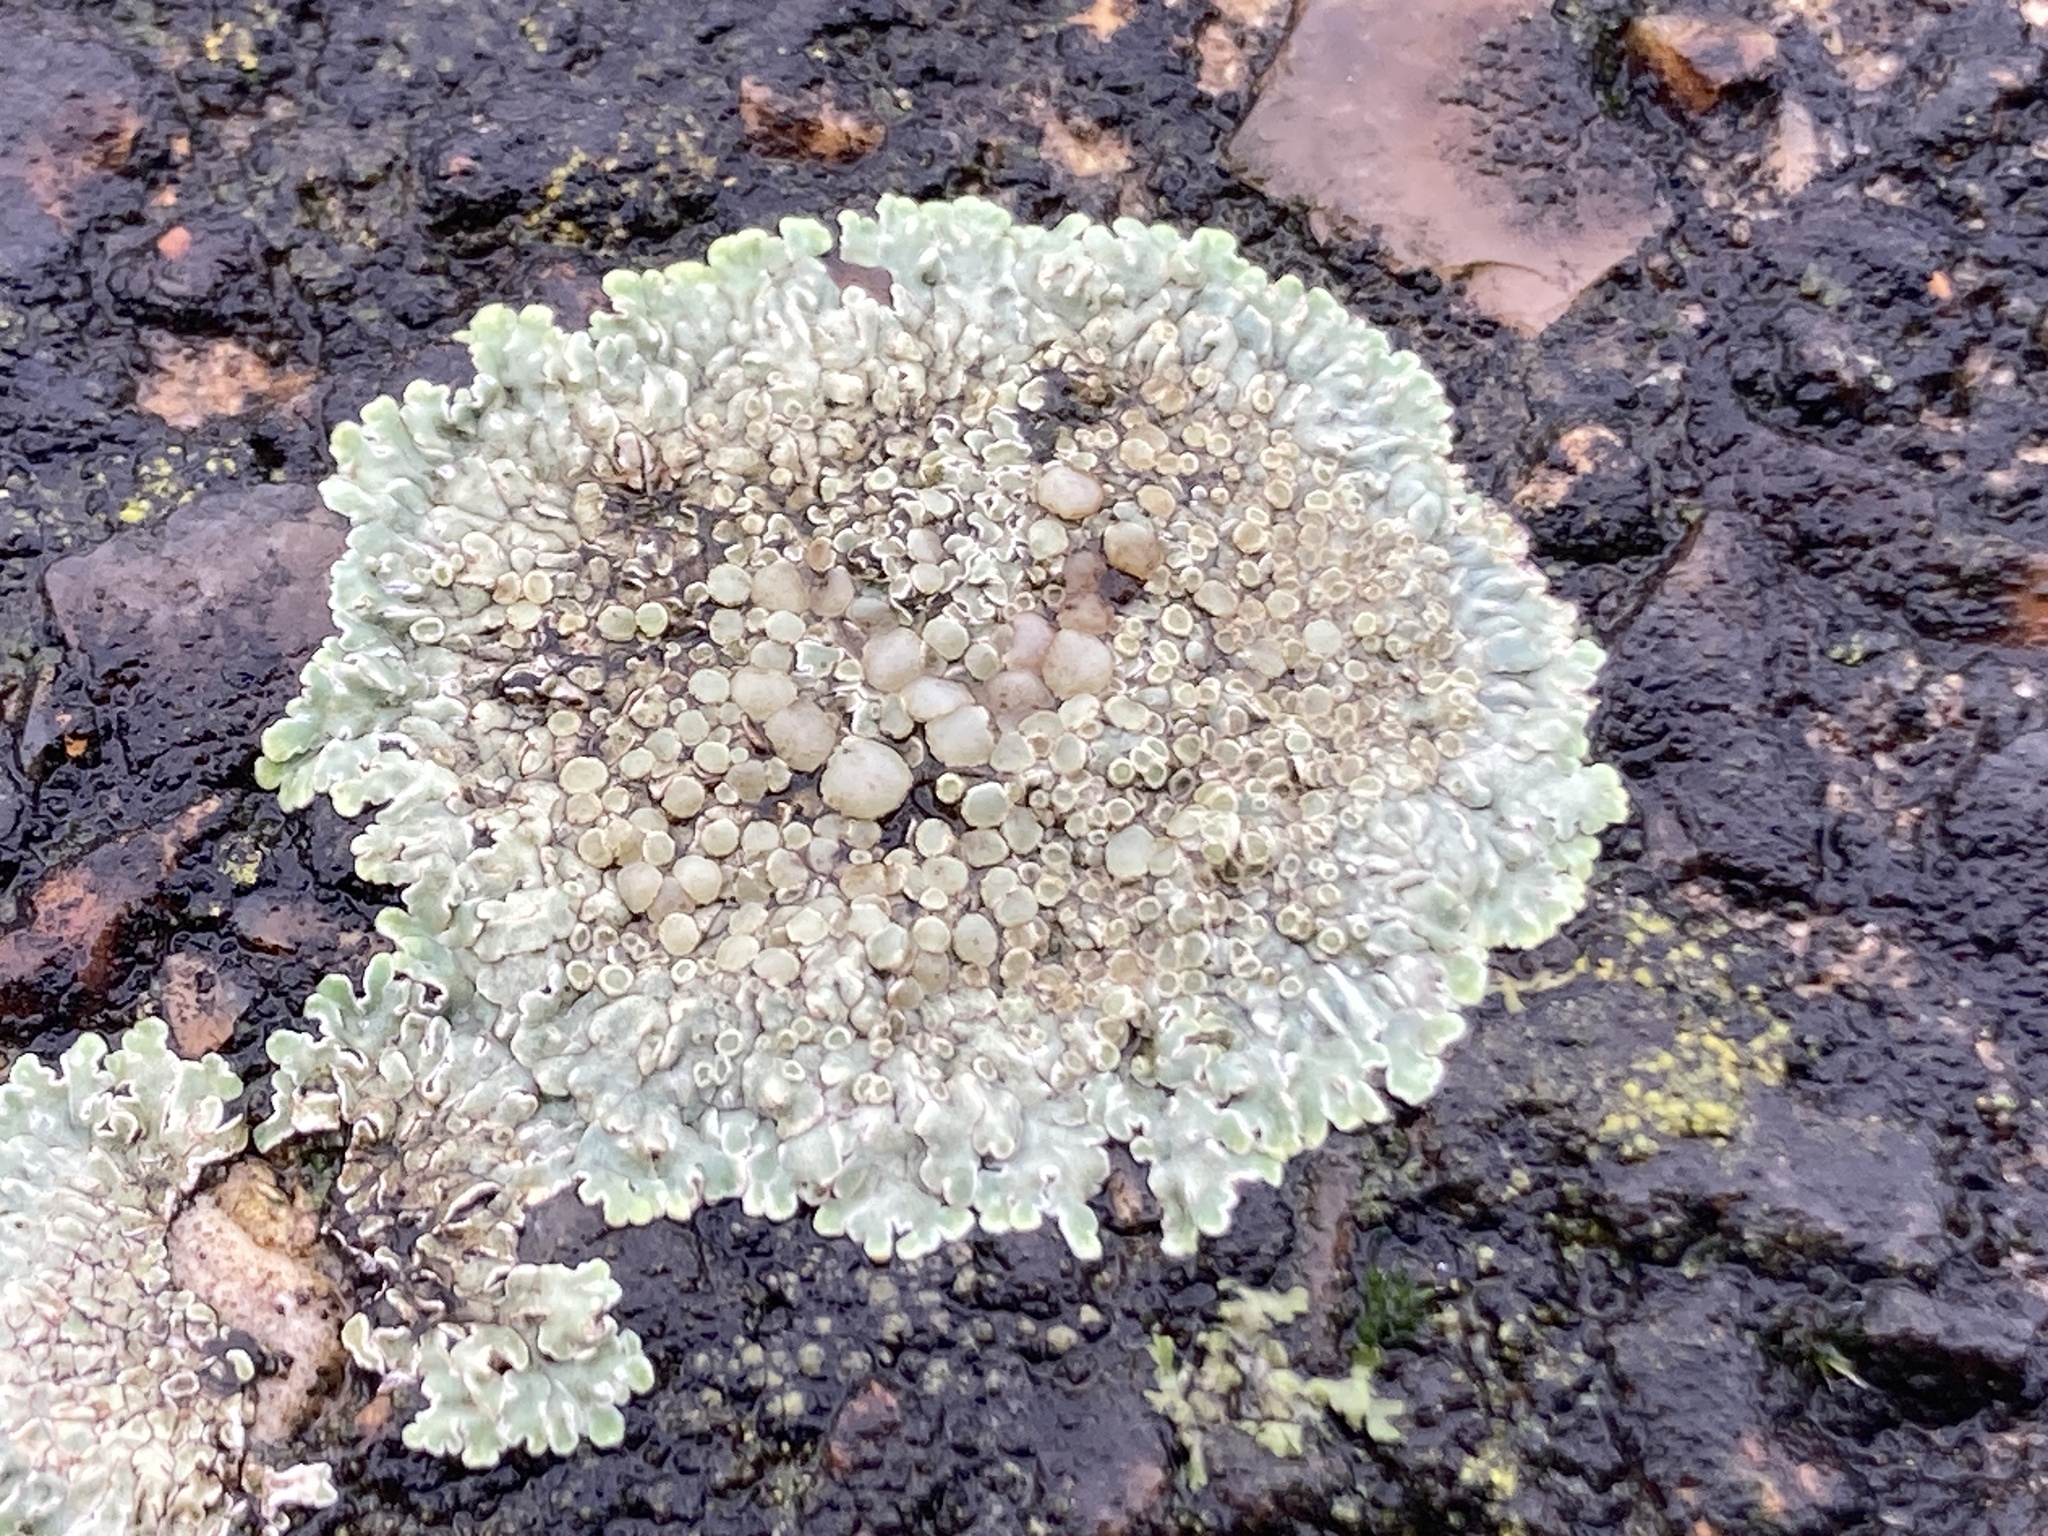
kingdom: Fungi
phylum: Ascomycota
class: Lecanoromycetes
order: Lecanorales
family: Lecanoraceae
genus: Protoparmeliopsis
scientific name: Protoparmeliopsis muralis
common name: Stonewall rim lichen
